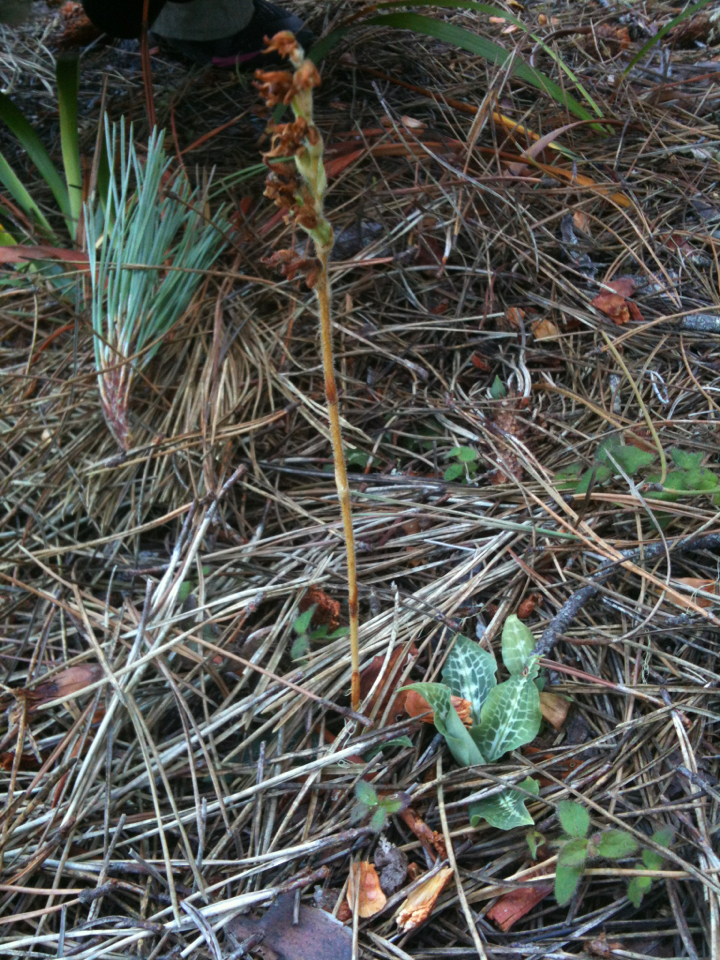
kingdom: Plantae
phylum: Tracheophyta
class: Liliopsida
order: Asparagales
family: Orchidaceae
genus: Goodyera
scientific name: Goodyera oblongifolia
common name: Giant rattlesnake-plantain
